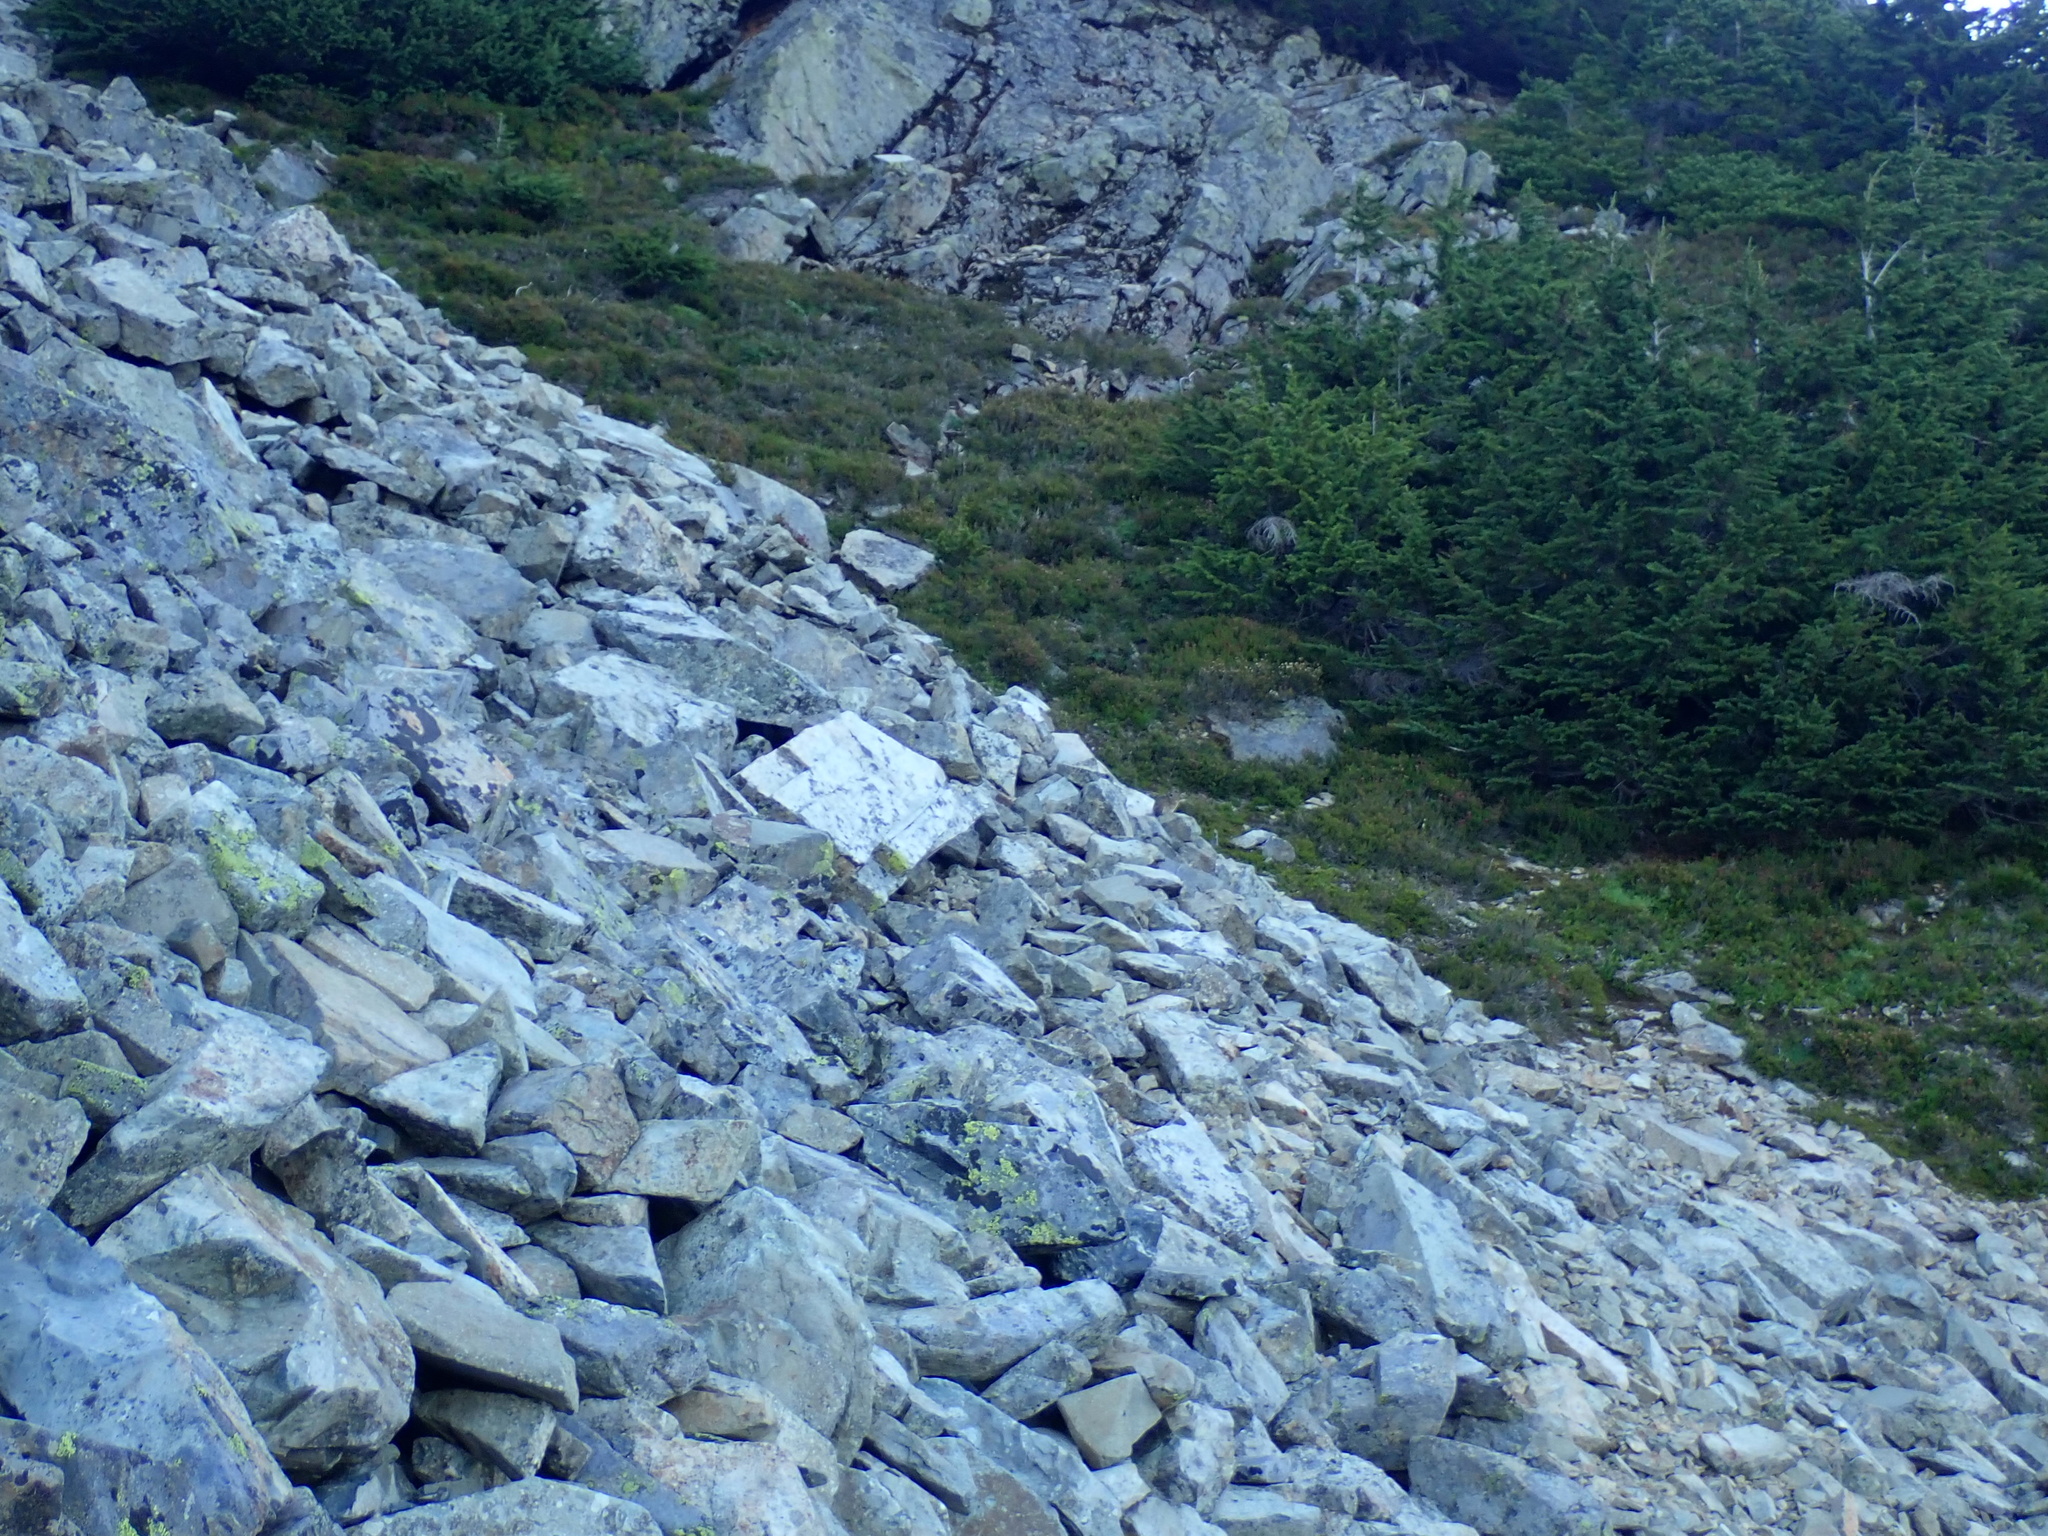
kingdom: Animalia
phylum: Chordata
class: Mammalia
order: Lagomorpha
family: Ochotonidae
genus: Ochotona
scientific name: Ochotona princeps
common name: American pika
